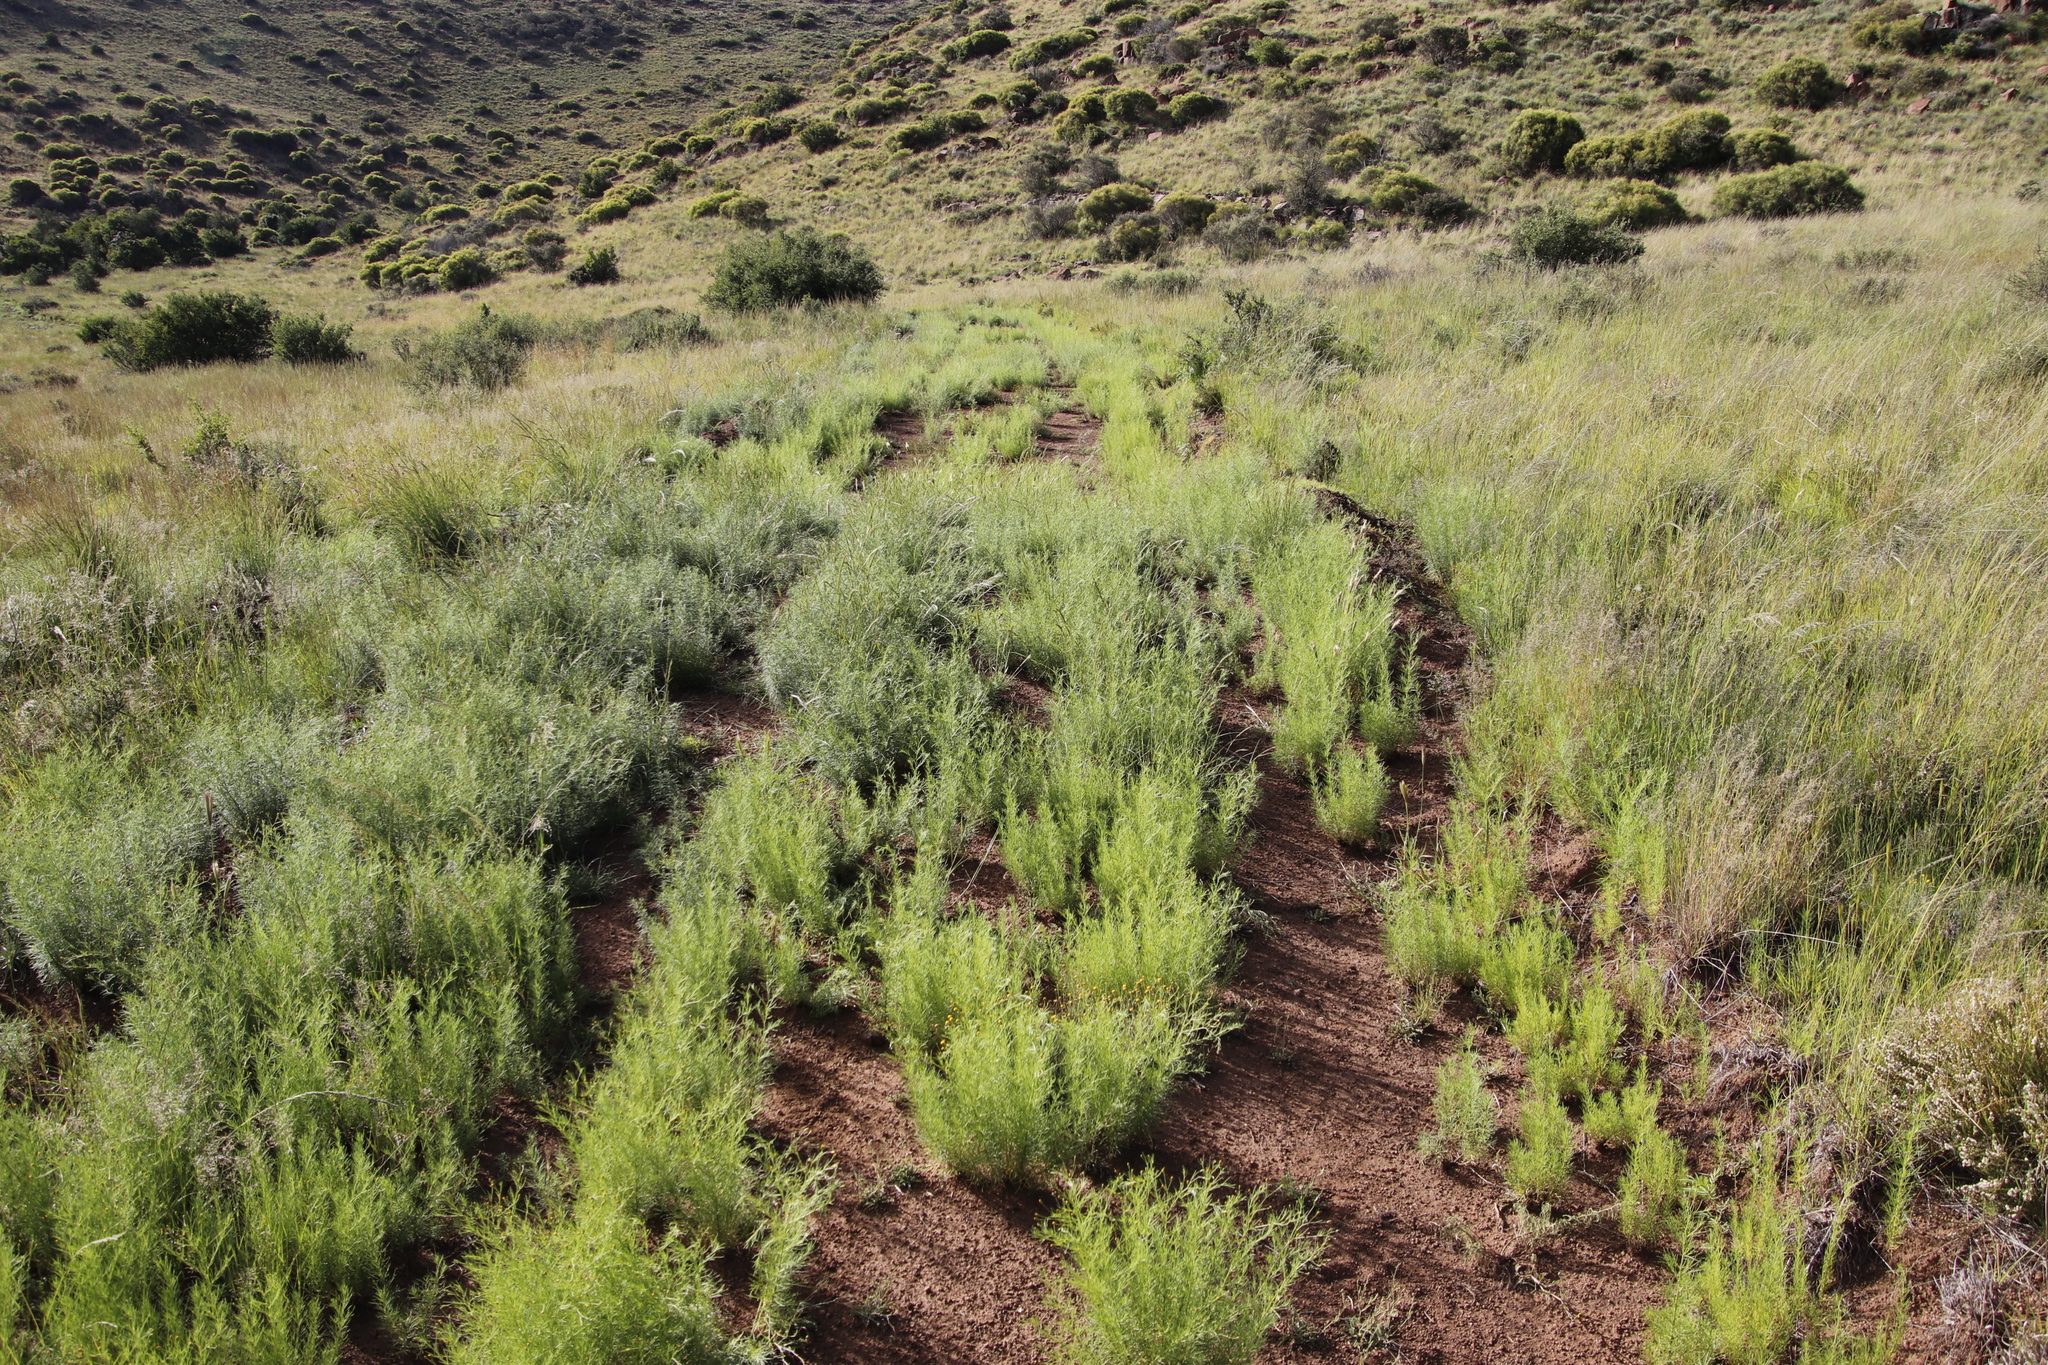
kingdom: Plantae
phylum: Tracheophyta
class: Magnoliopsida
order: Asterales
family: Asteraceae
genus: Schkuhria
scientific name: Schkuhria pinnata
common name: Dwarf marigold
